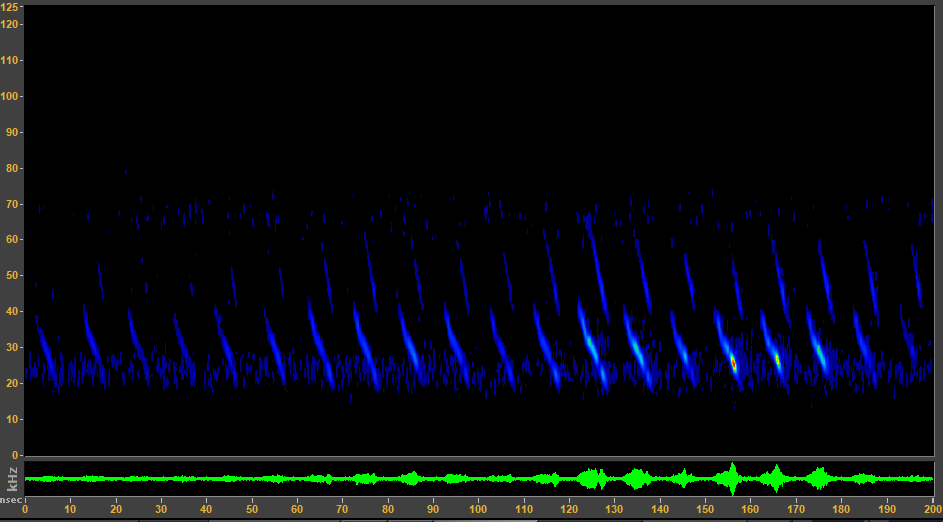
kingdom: Animalia
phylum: Chordata
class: Mammalia
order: Chiroptera
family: Vespertilionidae
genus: Corynorhinus
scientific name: Corynorhinus townsendii
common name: Townsend's big-eared bat
